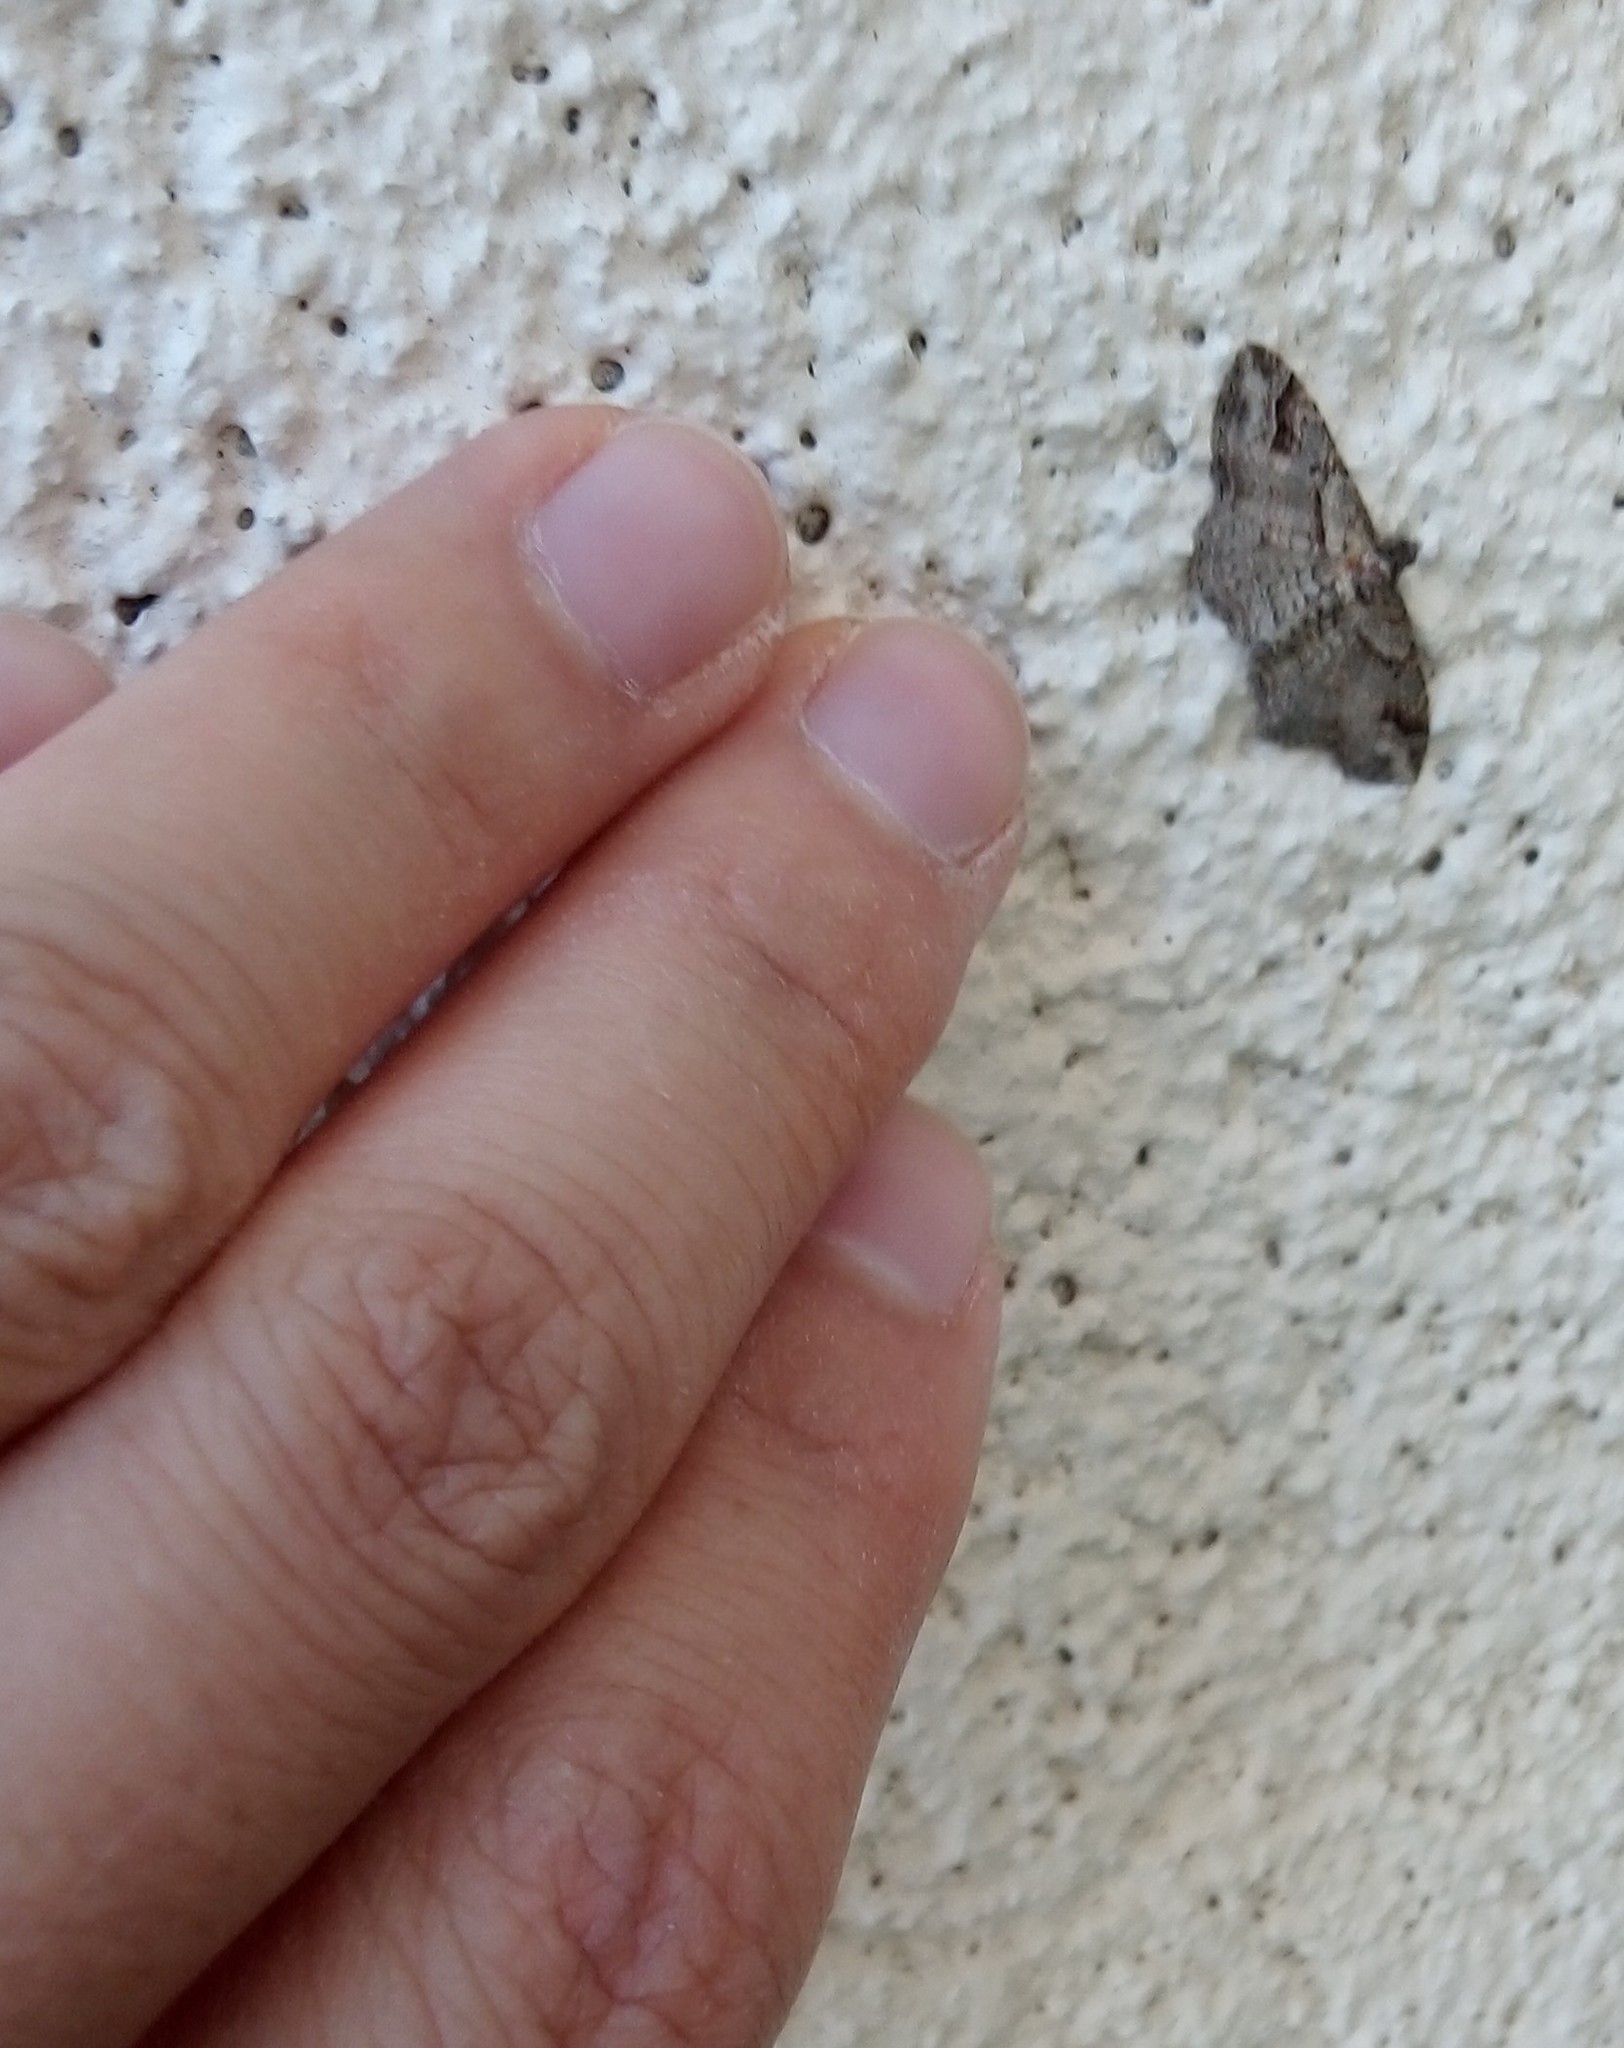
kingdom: Animalia
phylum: Arthropoda
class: Insecta
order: Lepidoptera
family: Geometridae
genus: Costaconvexa
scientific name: Costaconvexa centrostrigaria
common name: Bent-line carpet
